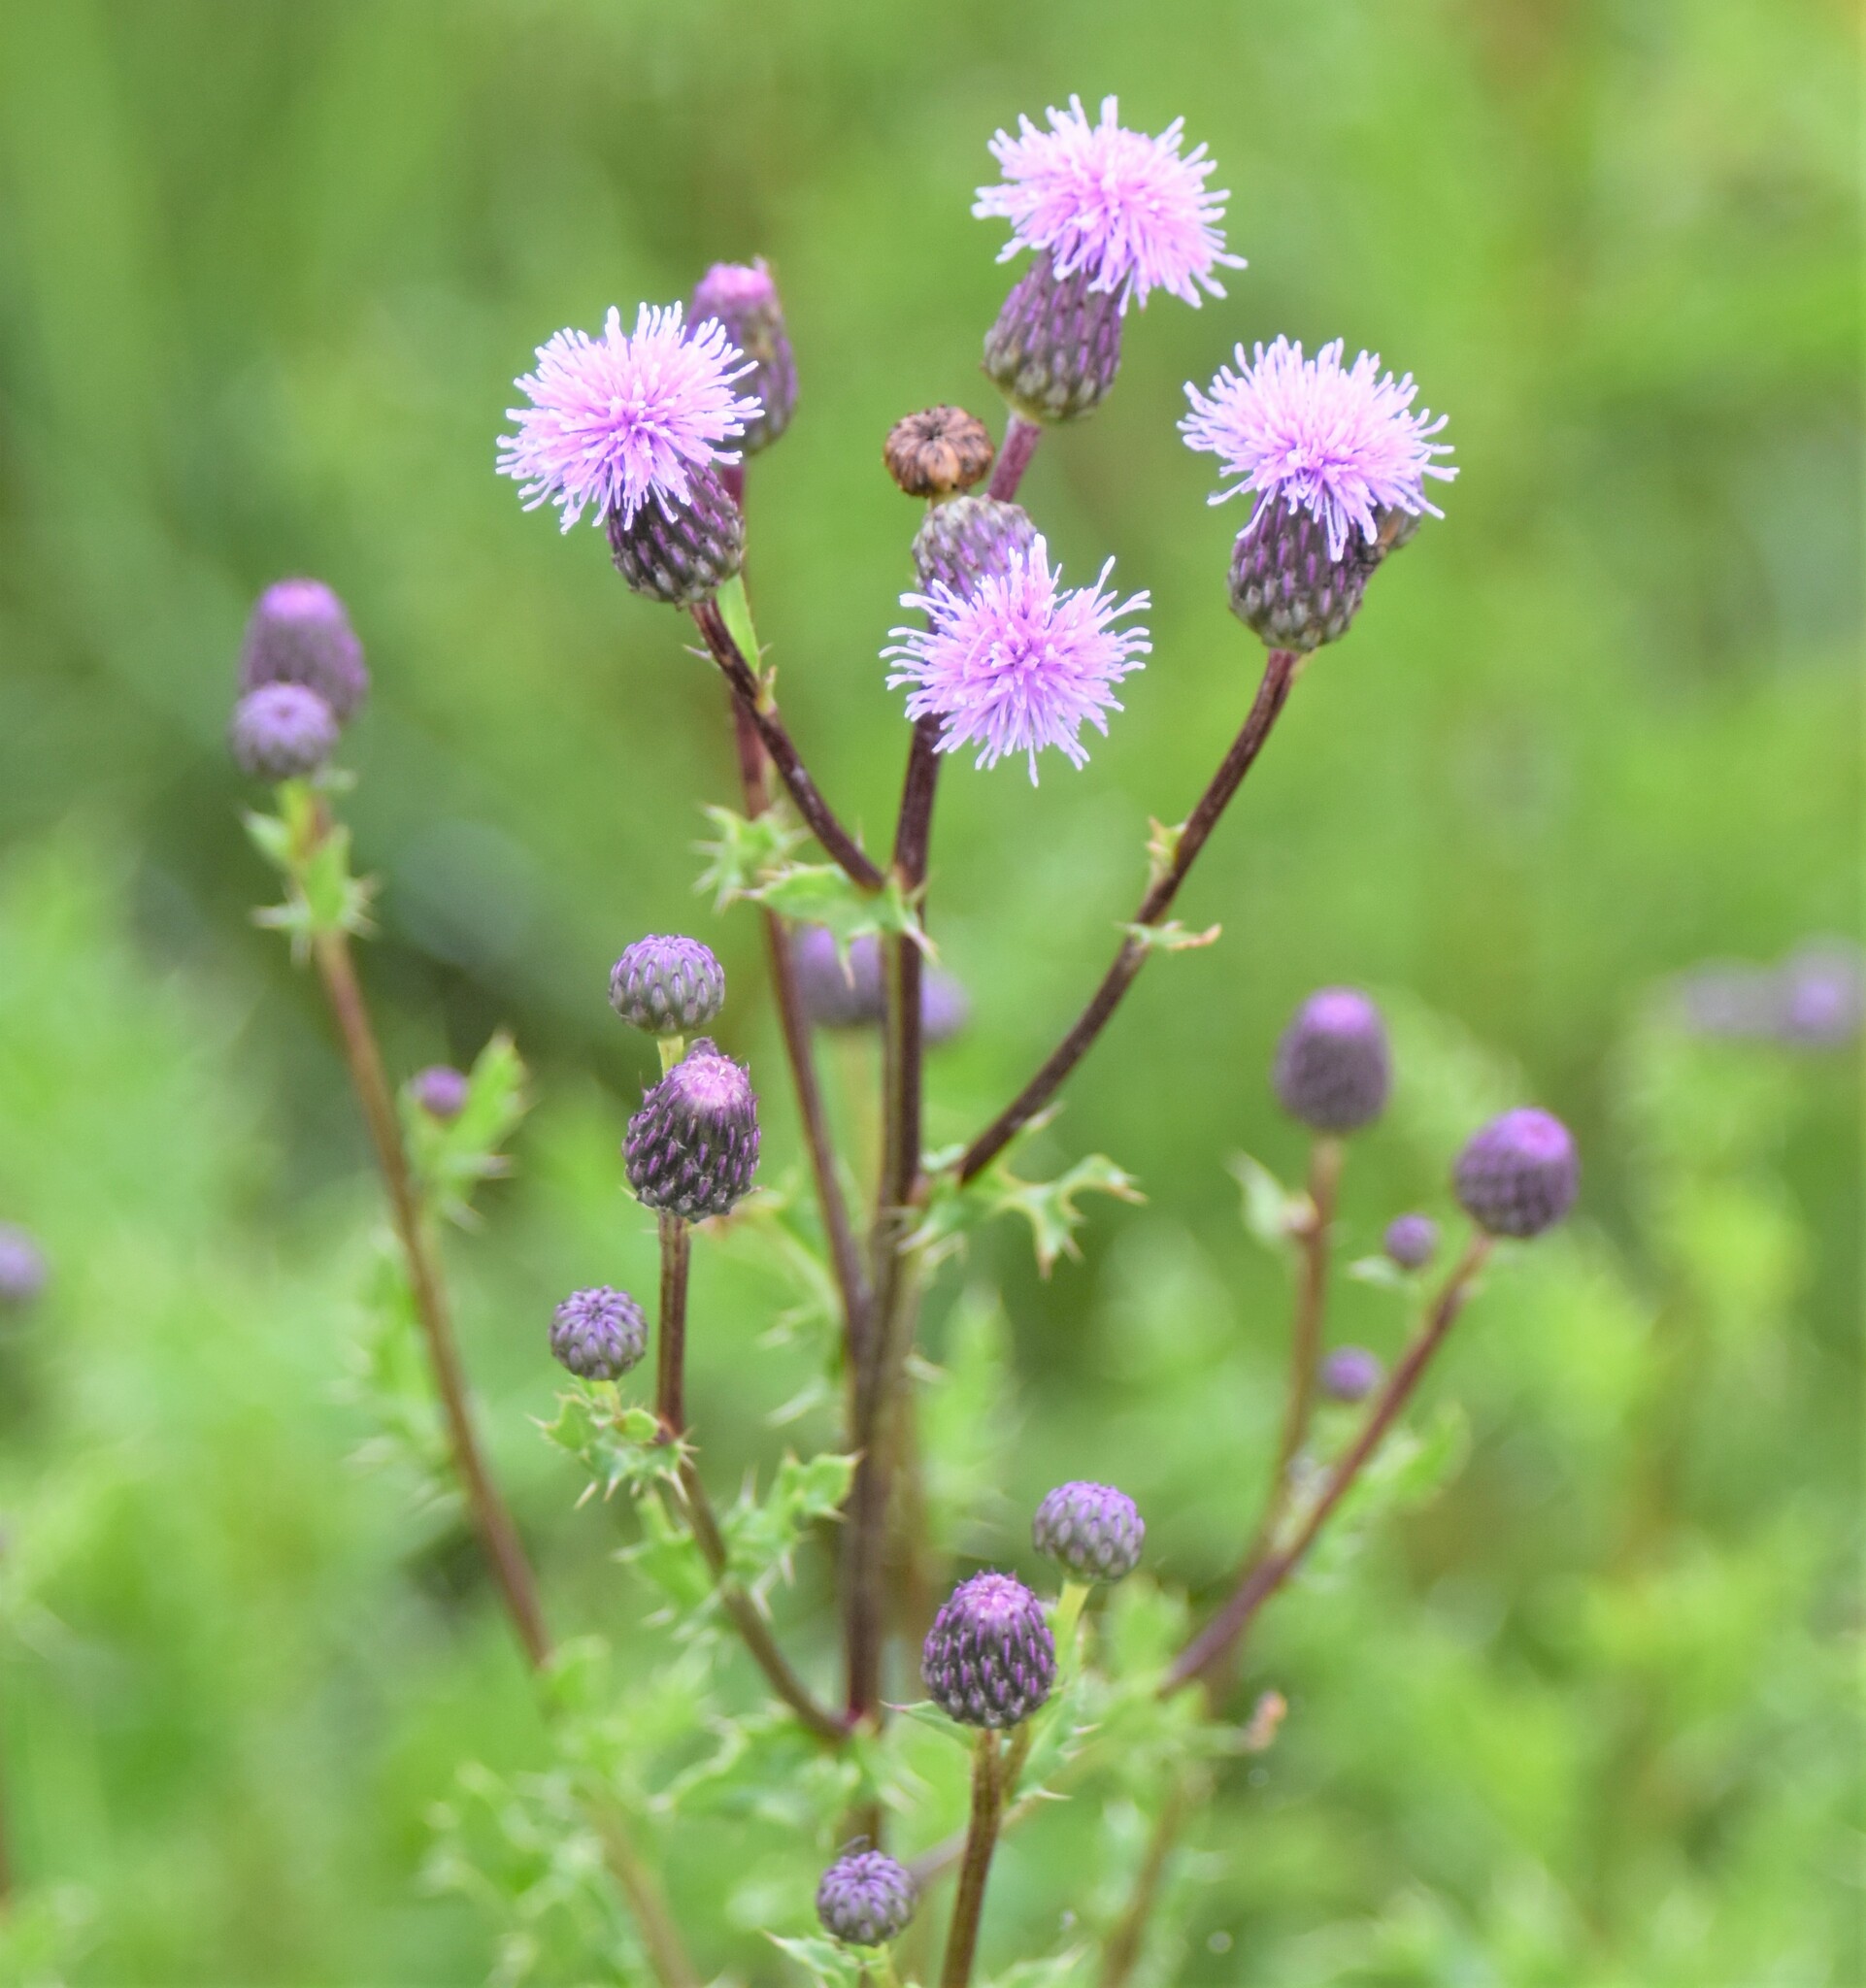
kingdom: Plantae
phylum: Tracheophyta
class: Magnoliopsida
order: Asterales
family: Asteraceae
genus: Cirsium
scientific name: Cirsium arvense
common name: Creeping thistle
